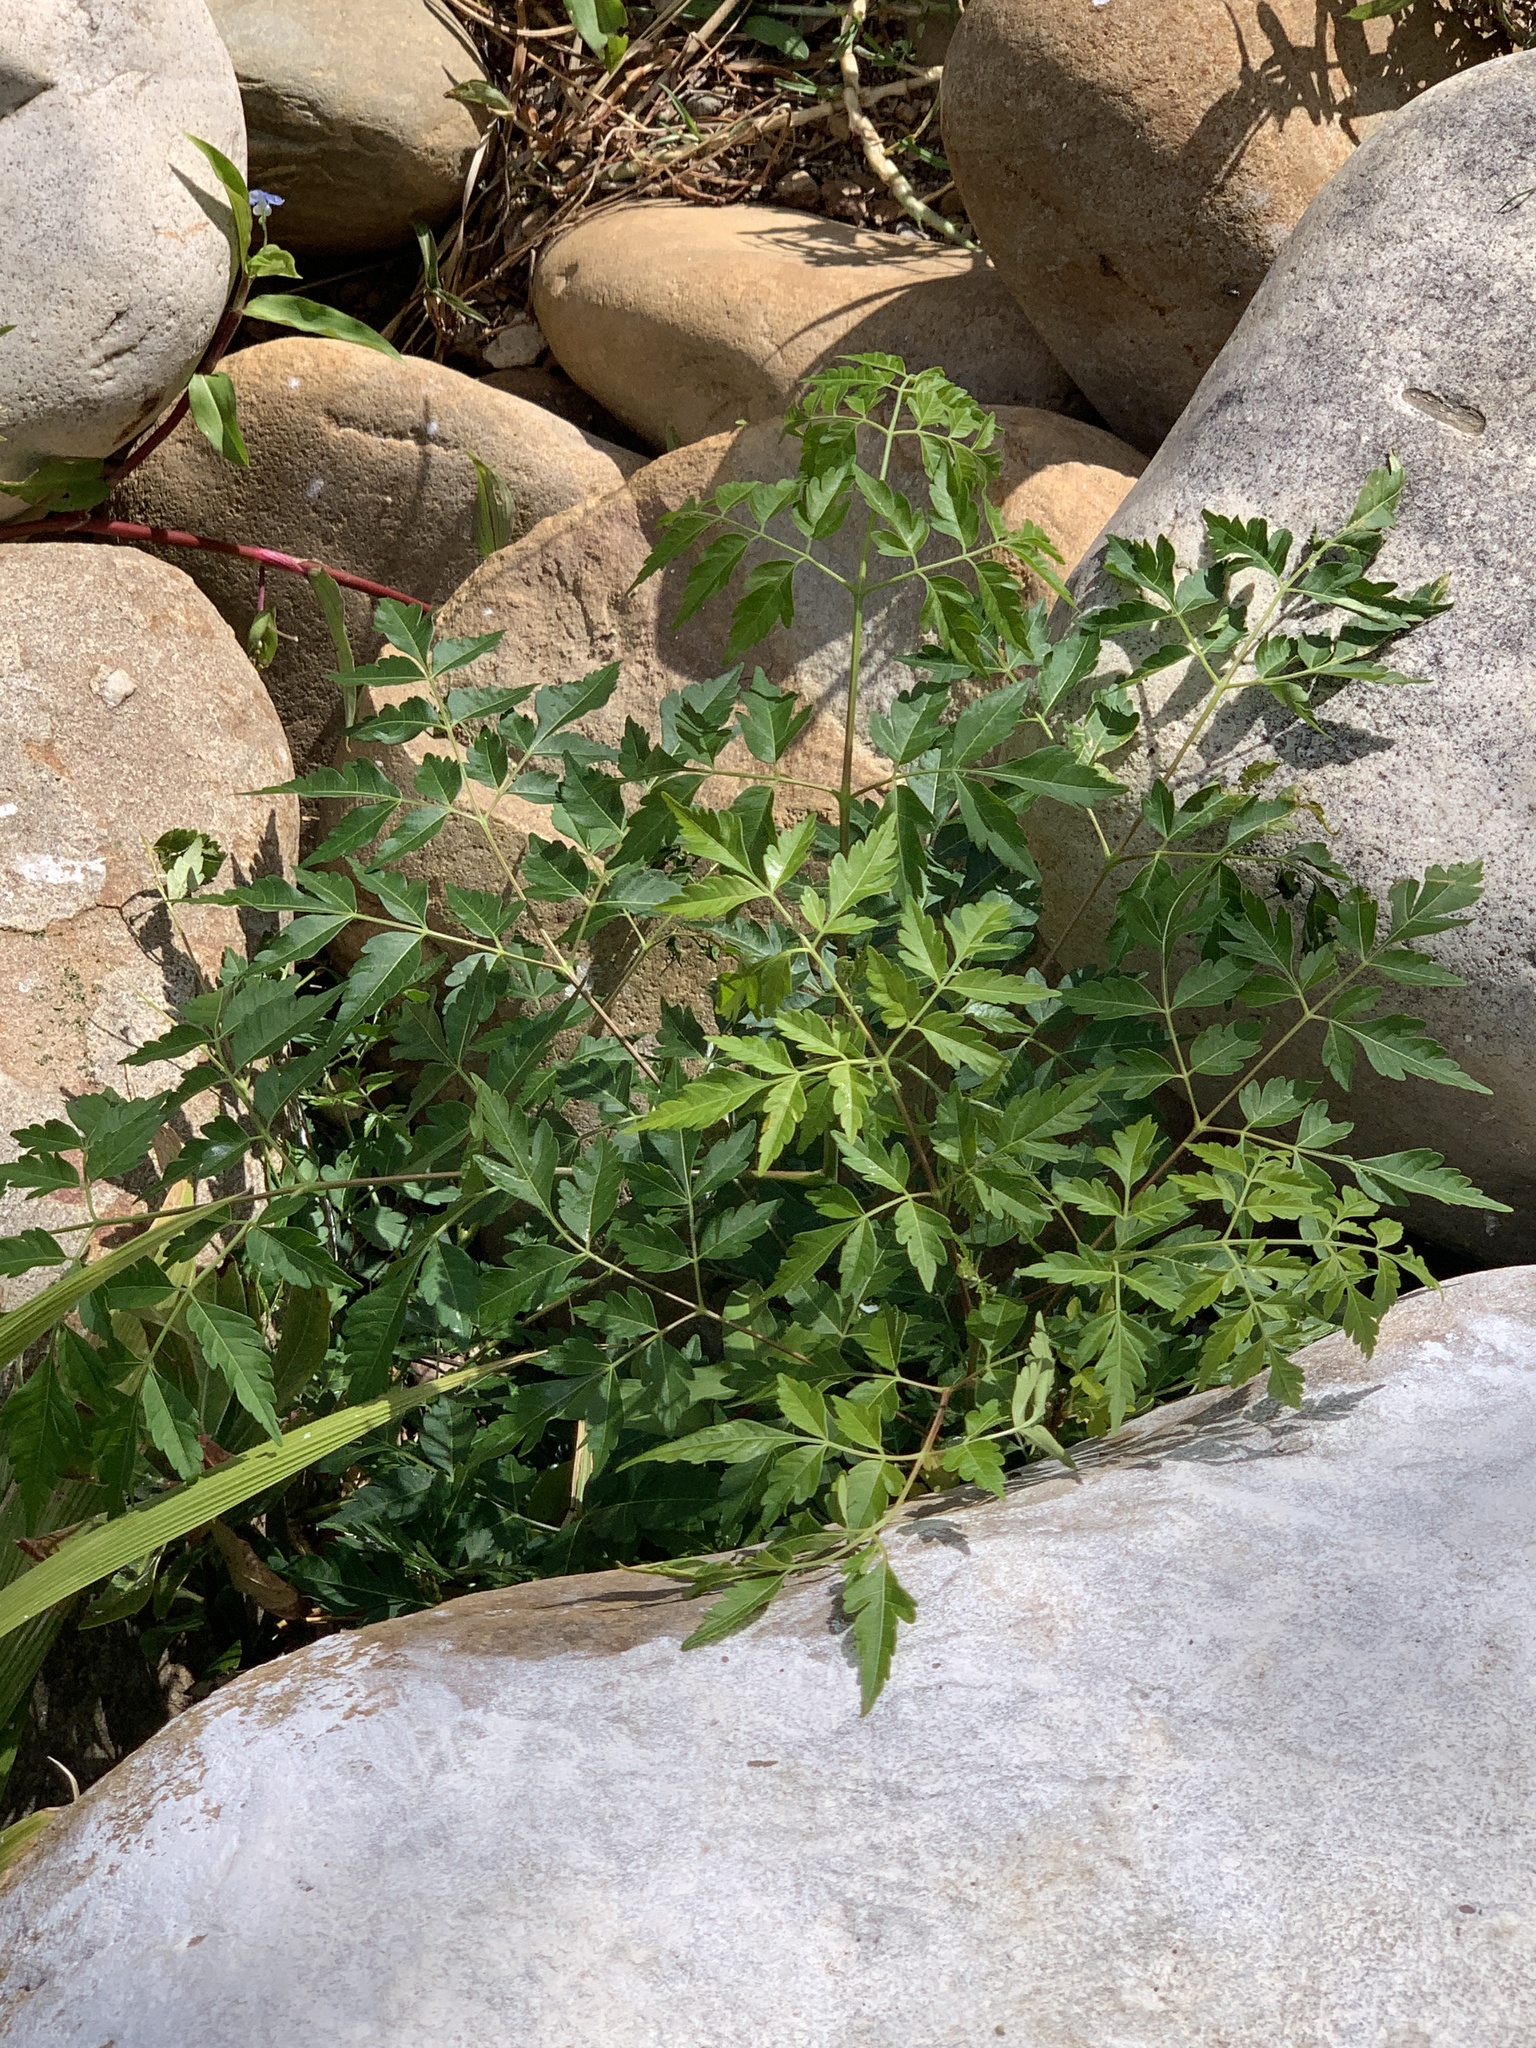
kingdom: Plantae
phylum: Tracheophyta
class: Magnoliopsida
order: Sapindales
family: Meliaceae
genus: Melia
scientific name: Melia azedarach
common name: Chinaberrytree
